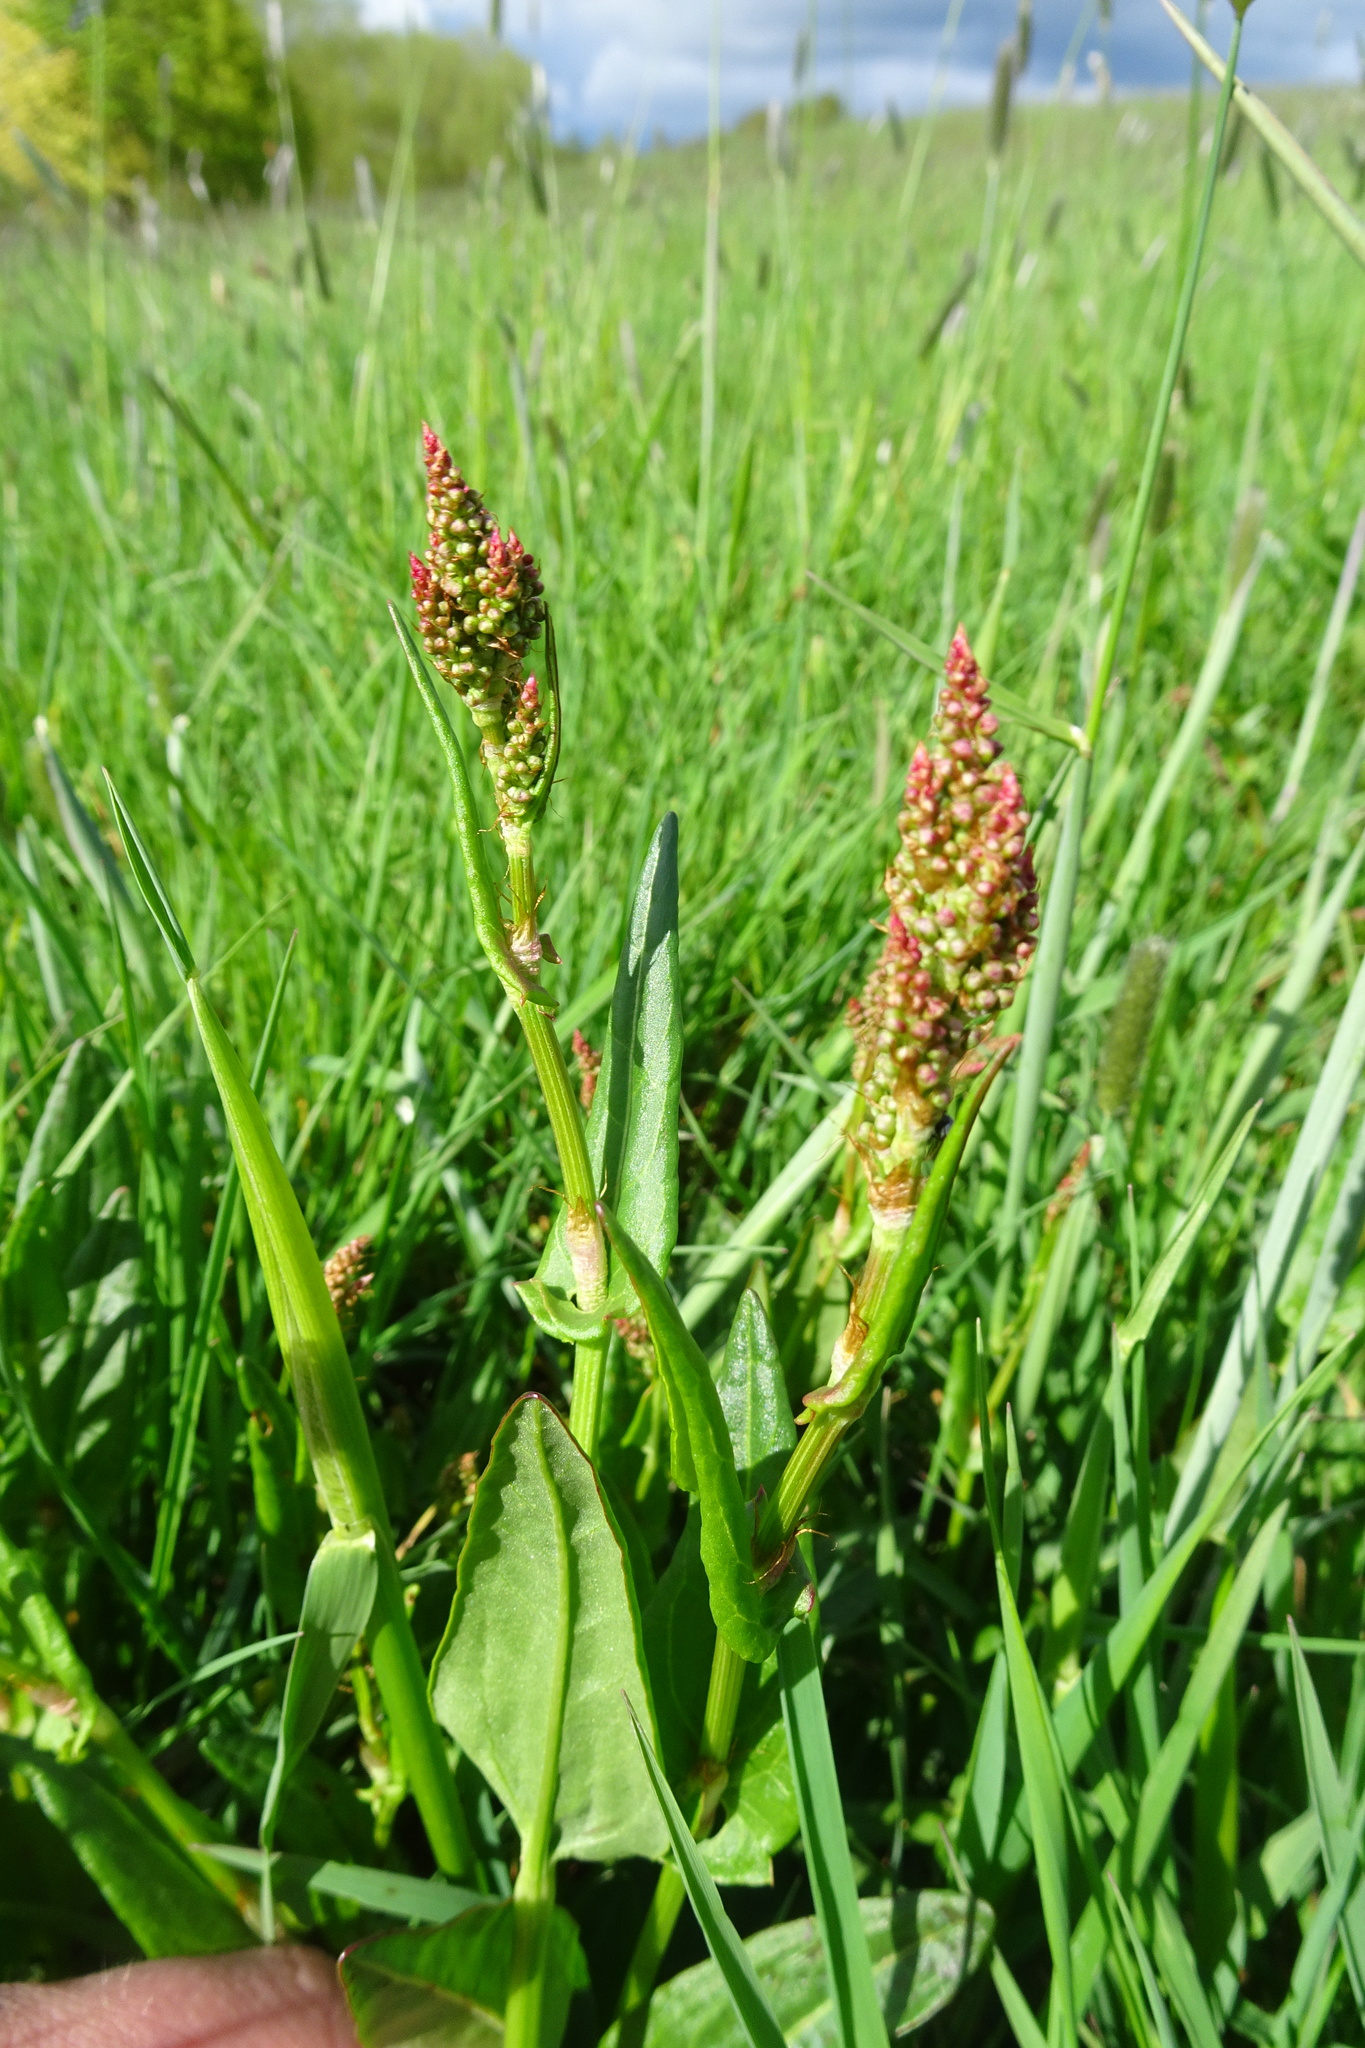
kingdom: Plantae
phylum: Tracheophyta
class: Magnoliopsida
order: Caryophyllales
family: Polygonaceae
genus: Rumex
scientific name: Rumex acetosa
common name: Garden sorrel
